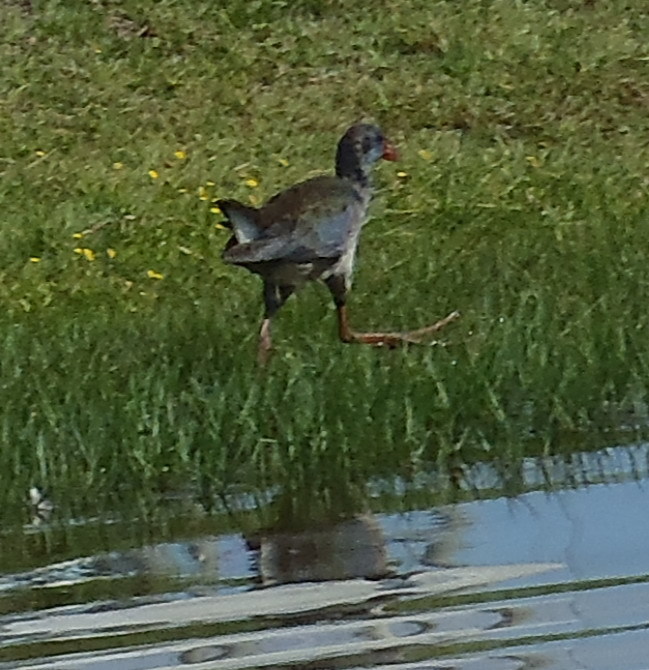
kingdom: Animalia
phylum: Chordata
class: Aves
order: Gruiformes
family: Rallidae
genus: Porphyrio
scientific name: Porphyrio porphyrio
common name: Purple swamphen
